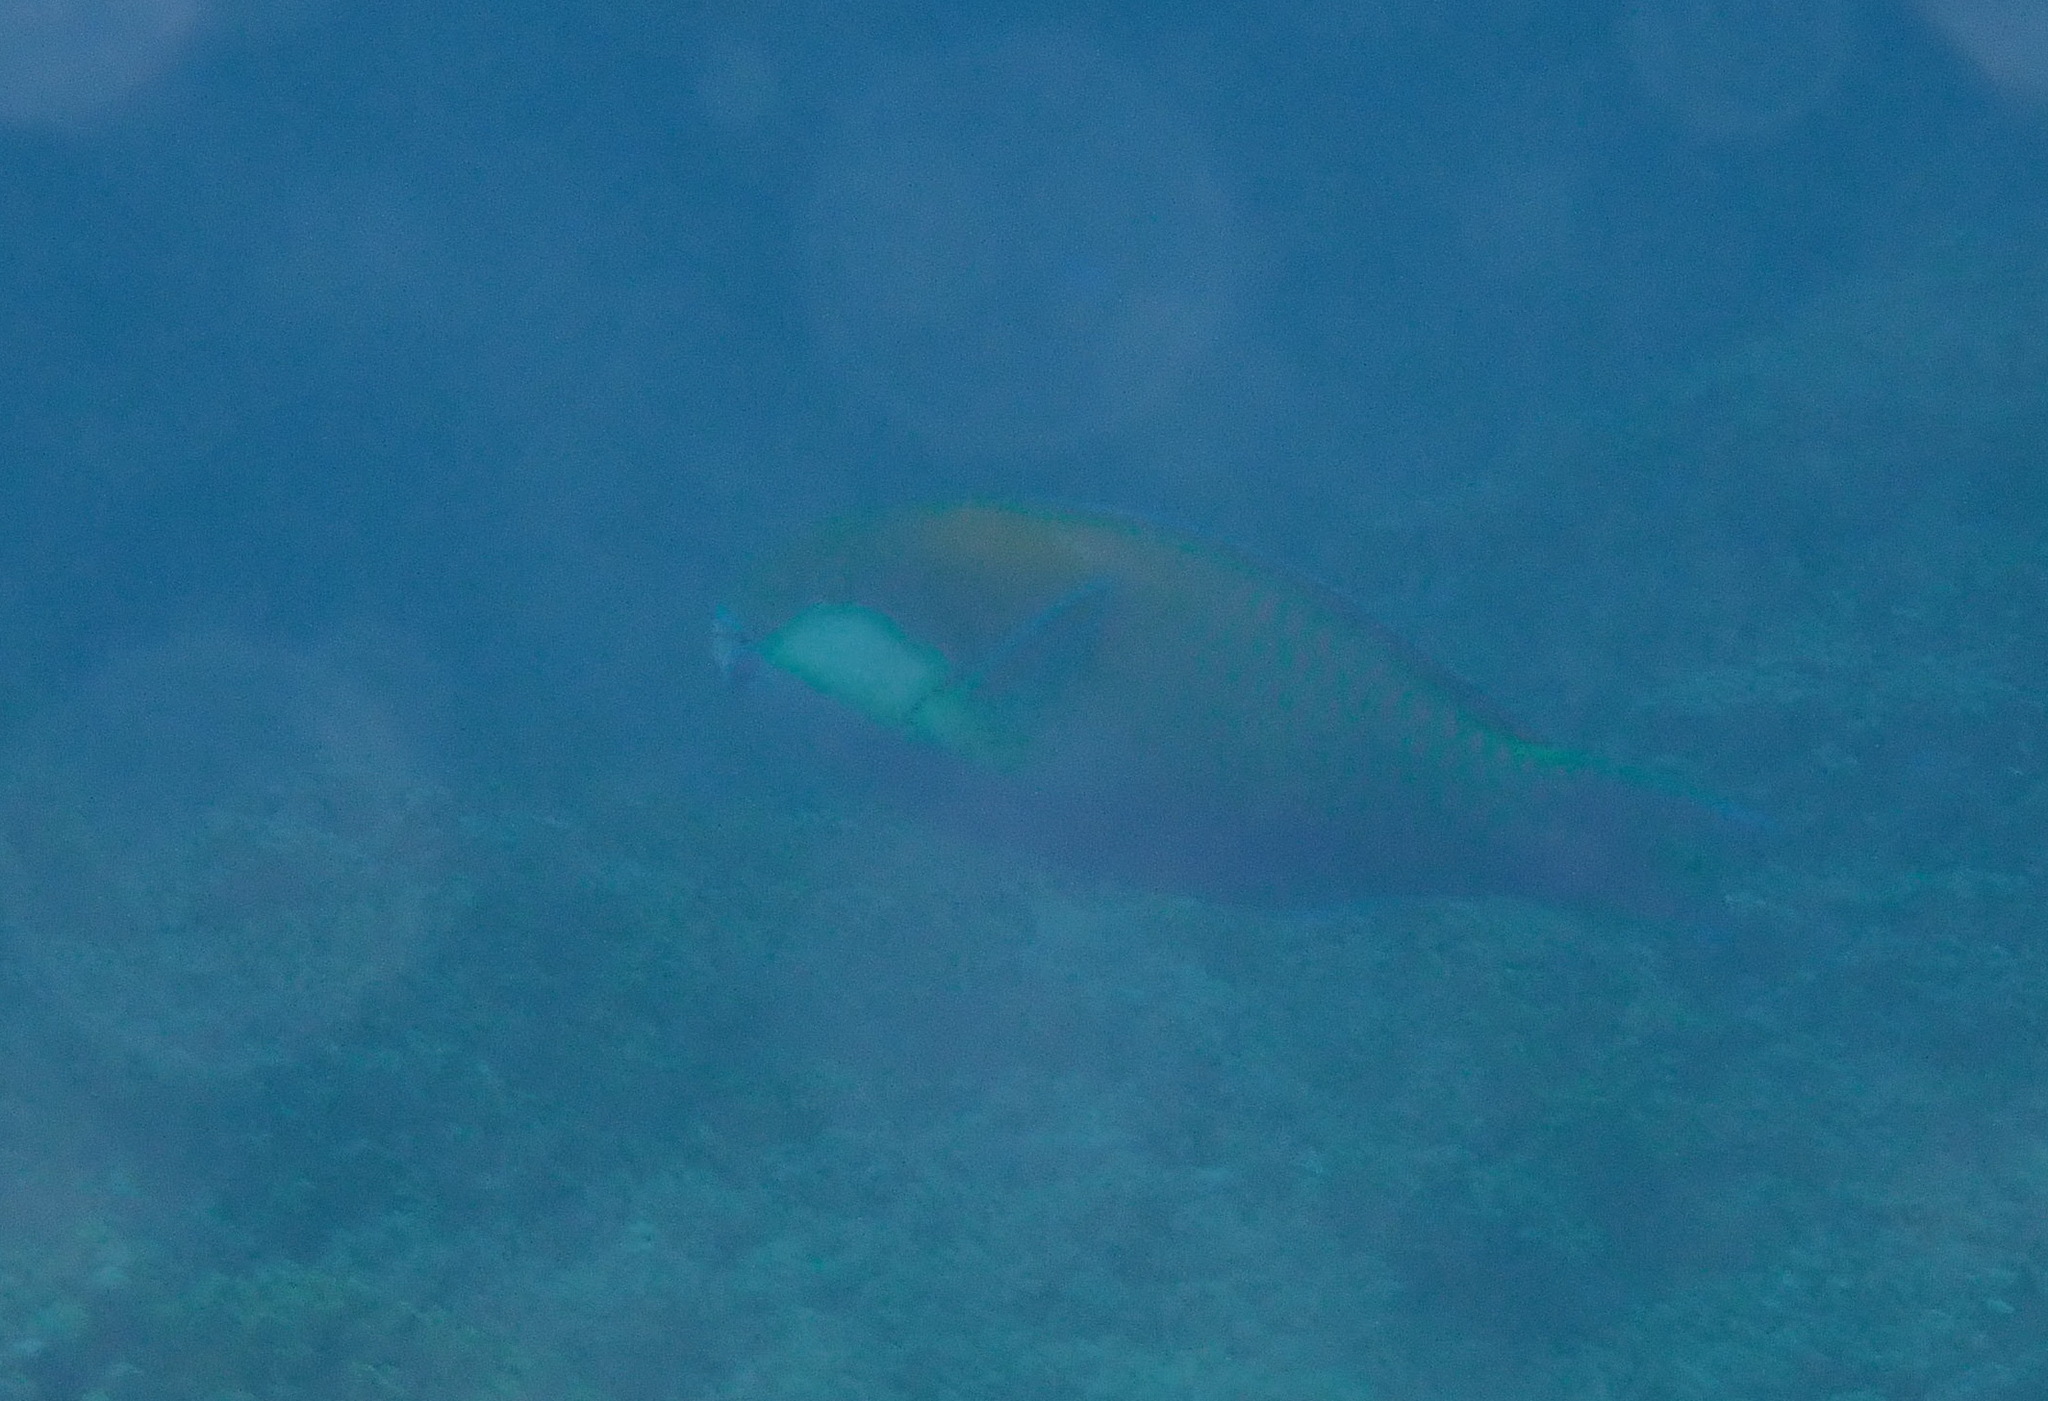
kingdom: Animalia
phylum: Chordata
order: Perciformes
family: Scaridae
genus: Chlorurus
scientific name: Chlorurus bleekeri
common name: Bleeker's parrotfish
